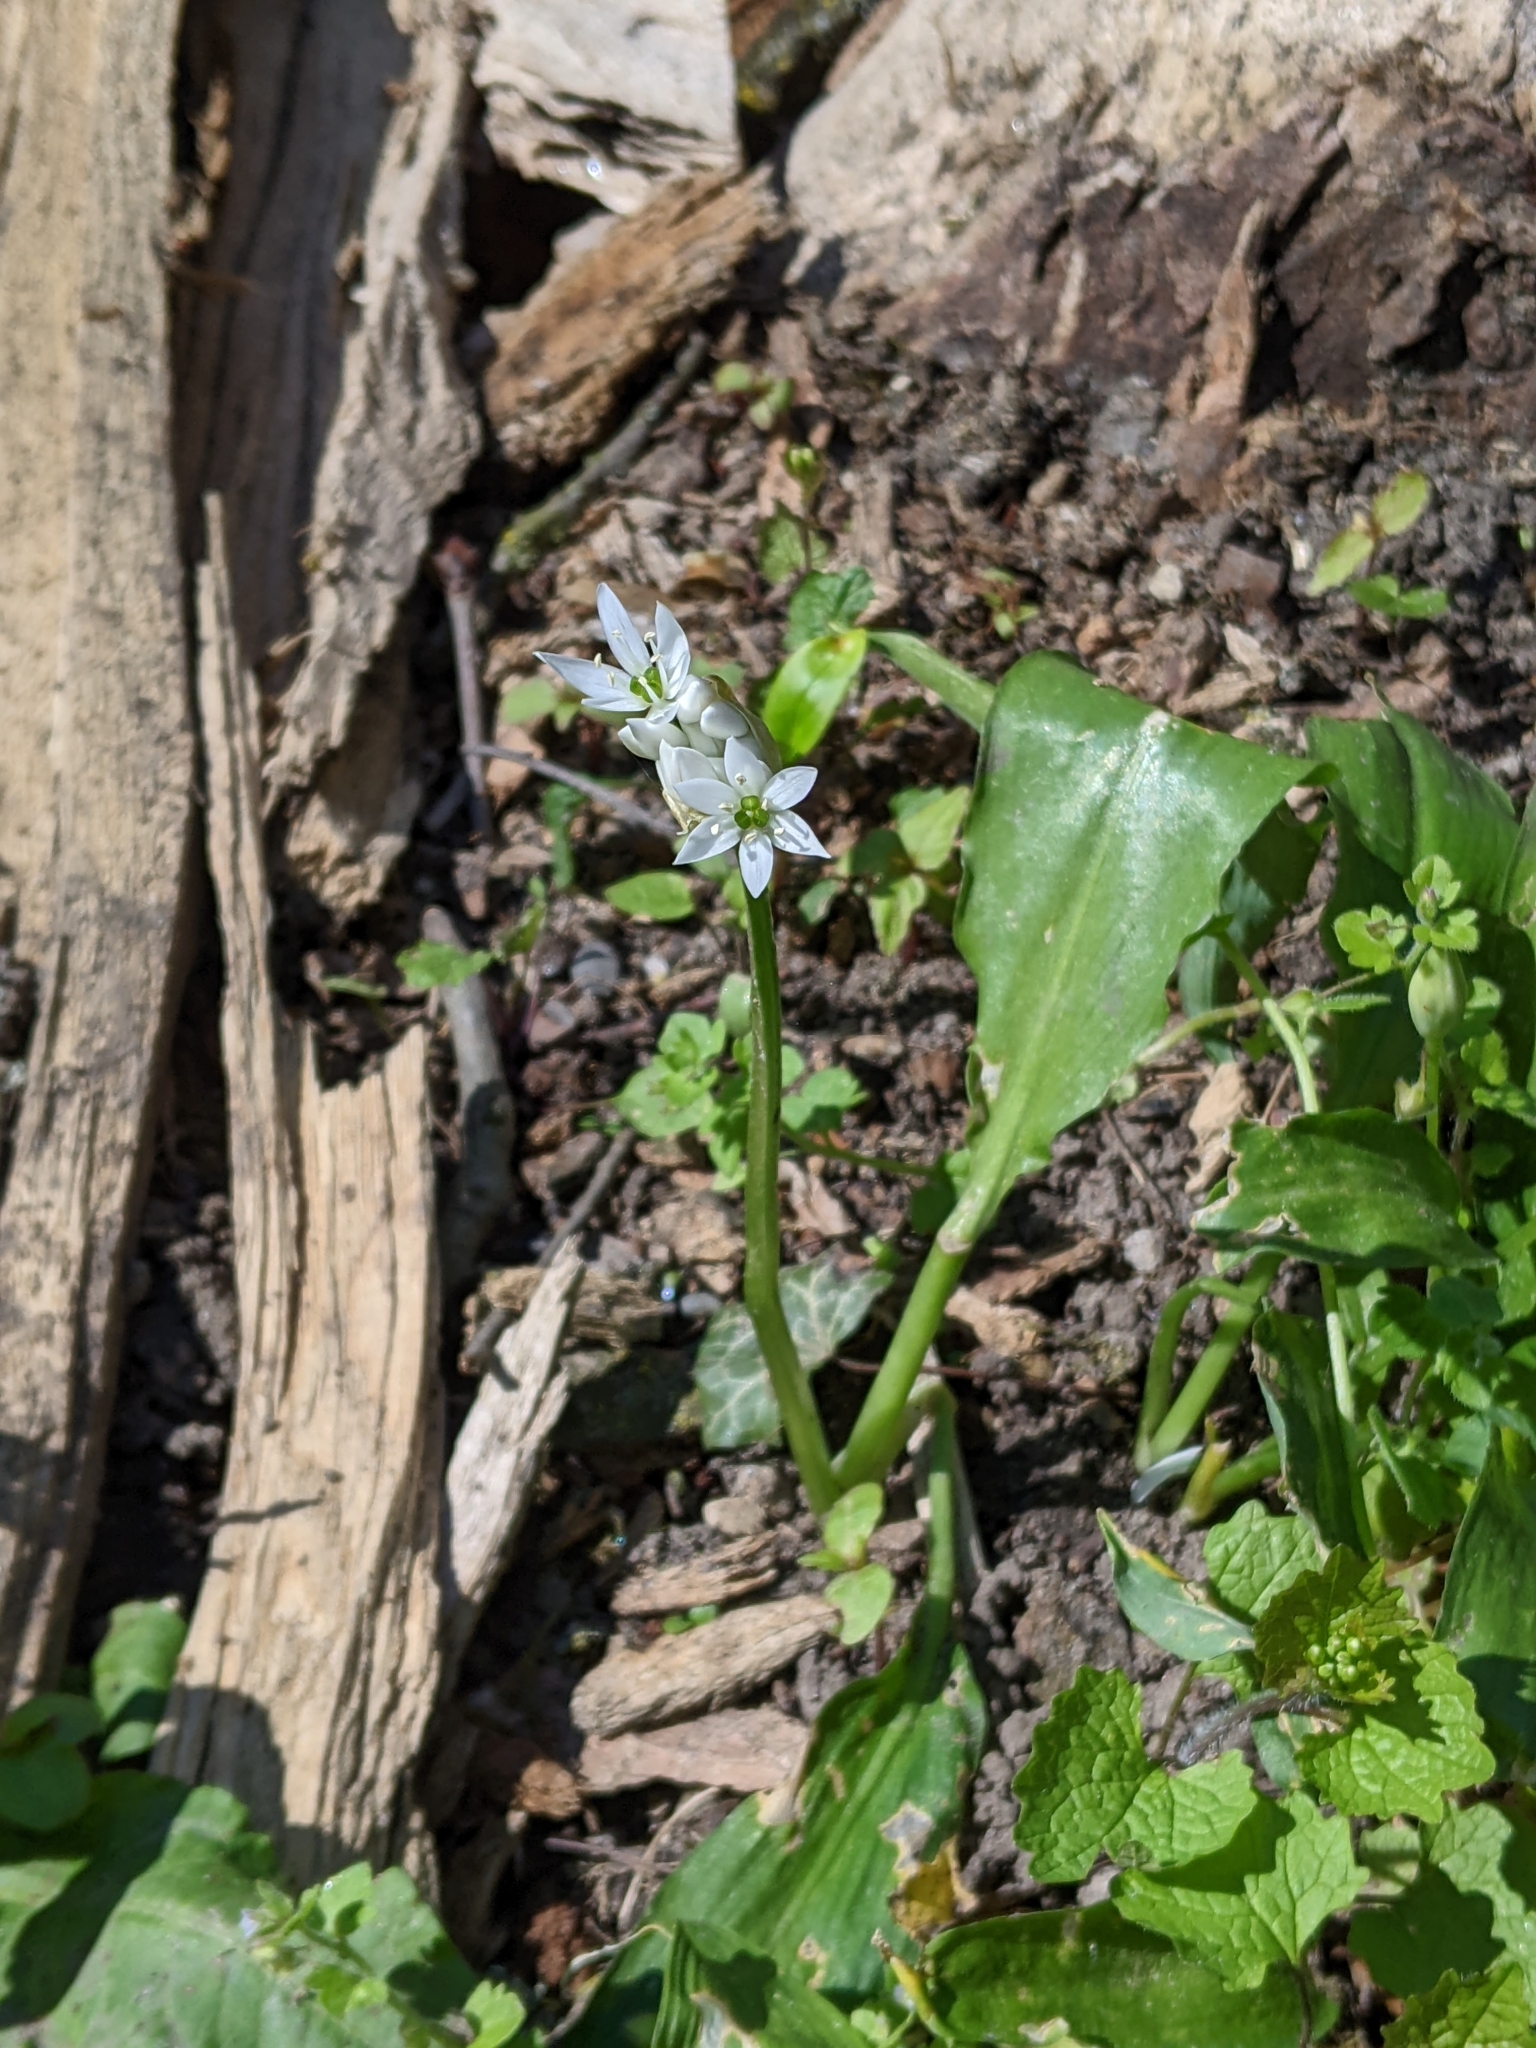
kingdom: Plantae
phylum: Tracheophyta
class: Liliopsida
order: Asparagales
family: Amaryllidaceae
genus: Allium
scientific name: Allium ursinum
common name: Ramsons
